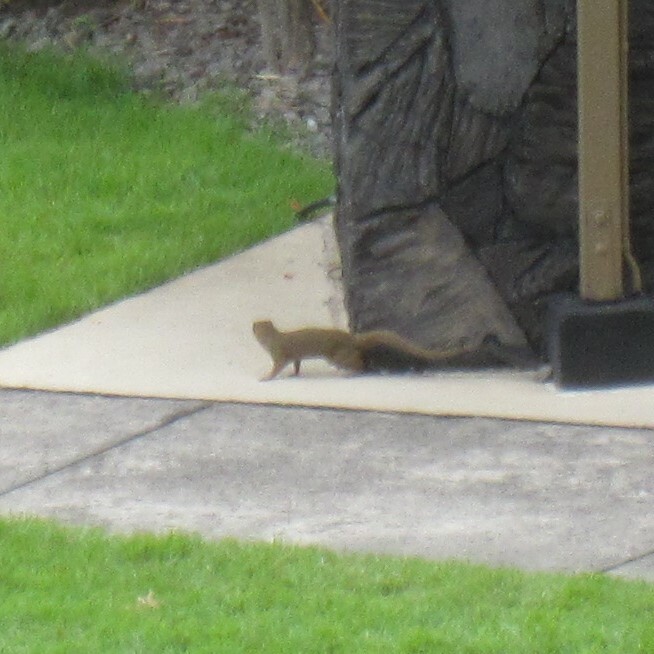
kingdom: Animalia
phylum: Chordata
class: Mammalia
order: Carnivora
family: Herpestidae
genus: Herpestes
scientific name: Herpestes javanicus
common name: Small asian mongoose
